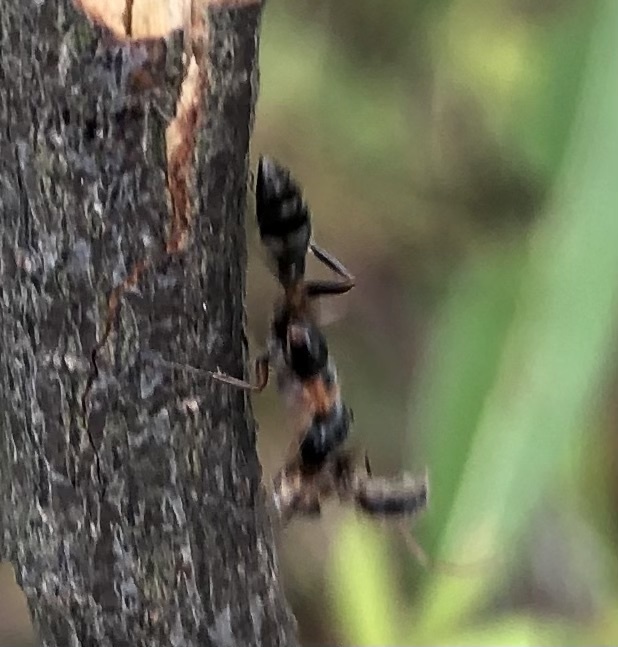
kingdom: Animalia
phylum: Arthropoda
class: Insecta
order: Hymenoptera
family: Formicidae
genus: Pseudomyrmex
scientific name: Pseudomyrmex gracilis
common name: Graceful twig ant
